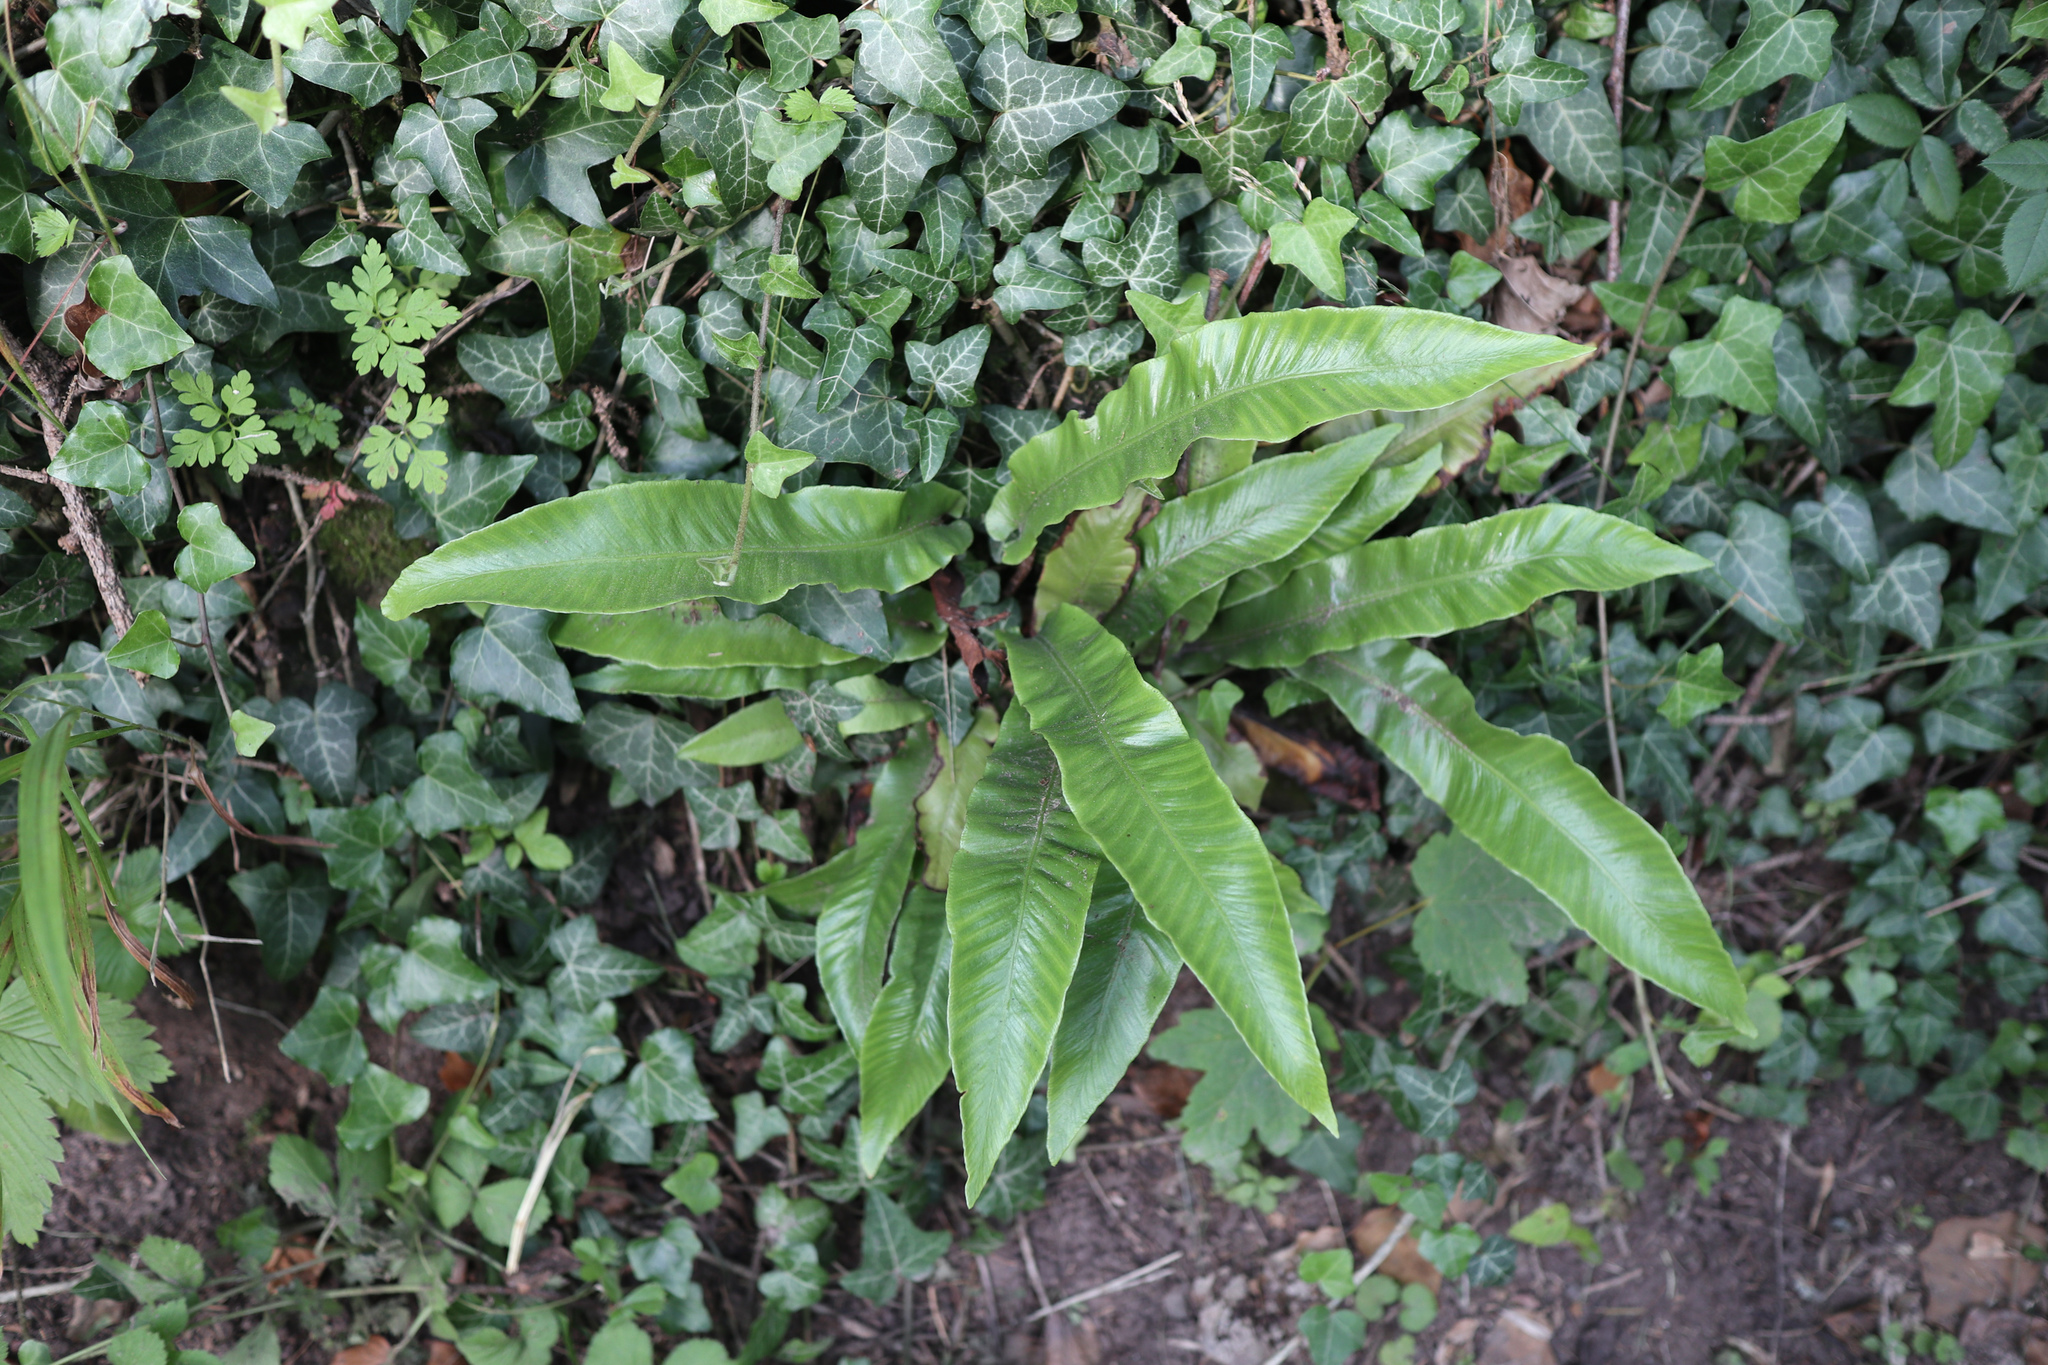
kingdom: Plantae
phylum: Tracheophyta
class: Polypodiopsida
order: Polypodiales
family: Aspleniaceae
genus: Asplenium
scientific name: Asplenium scolopendrium
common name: Hart's-tongue fern
